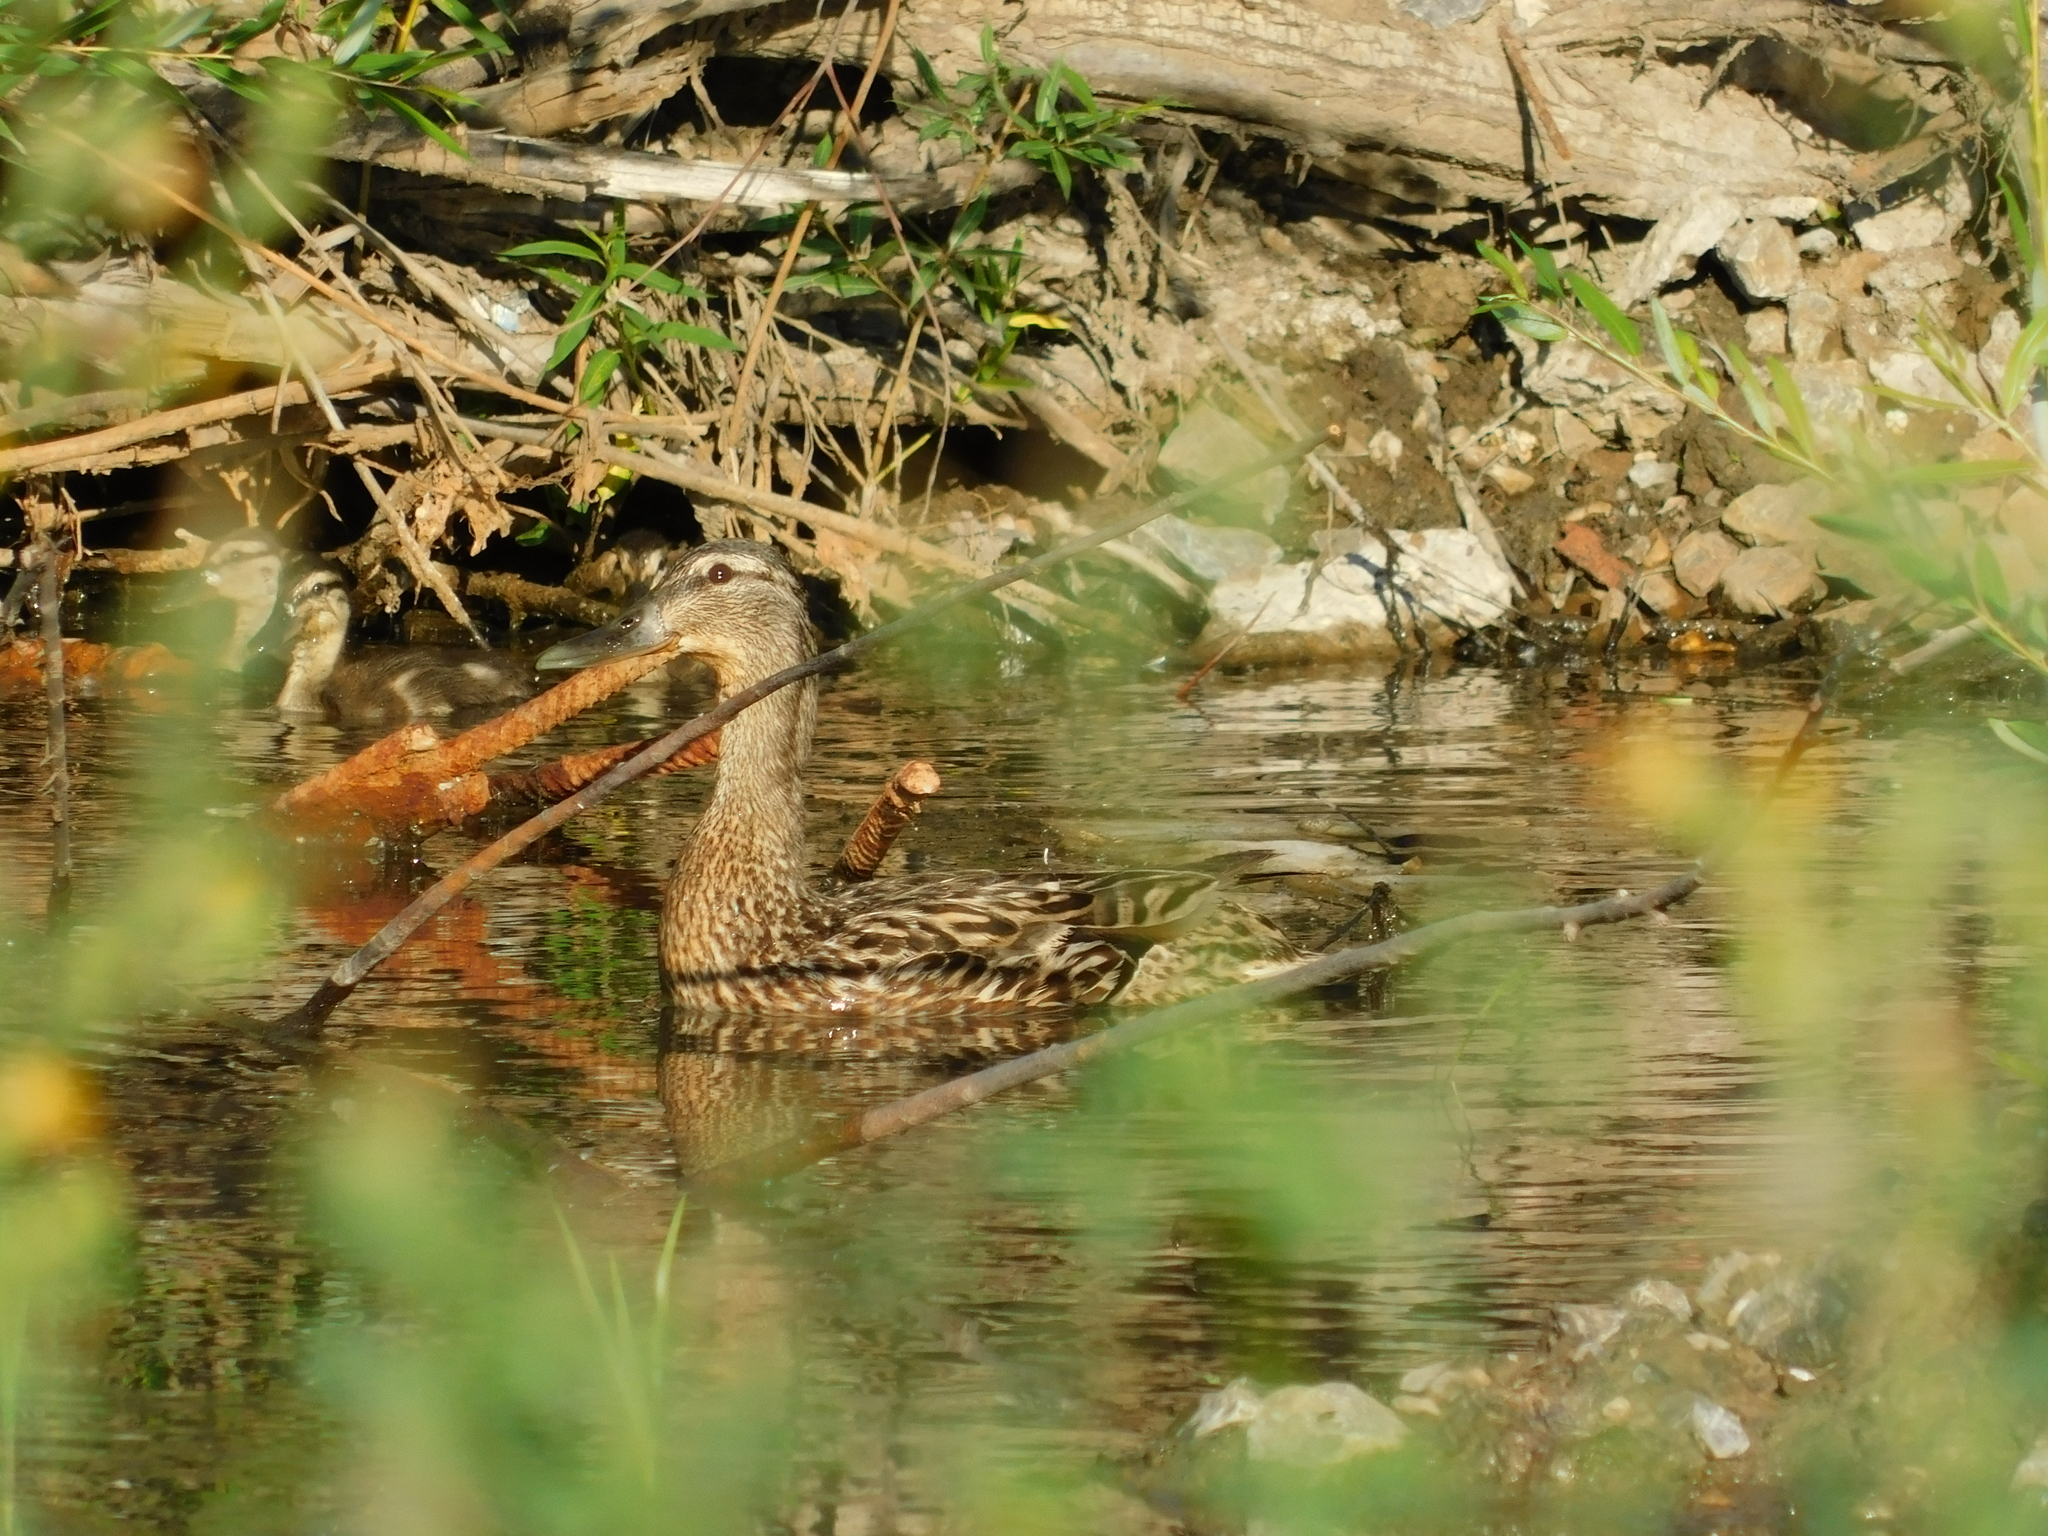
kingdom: Animalia
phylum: Chordata
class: Aves
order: Anseriformes
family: Anatidae
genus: Anas
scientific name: Anas platyrhynchos
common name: Mallard
